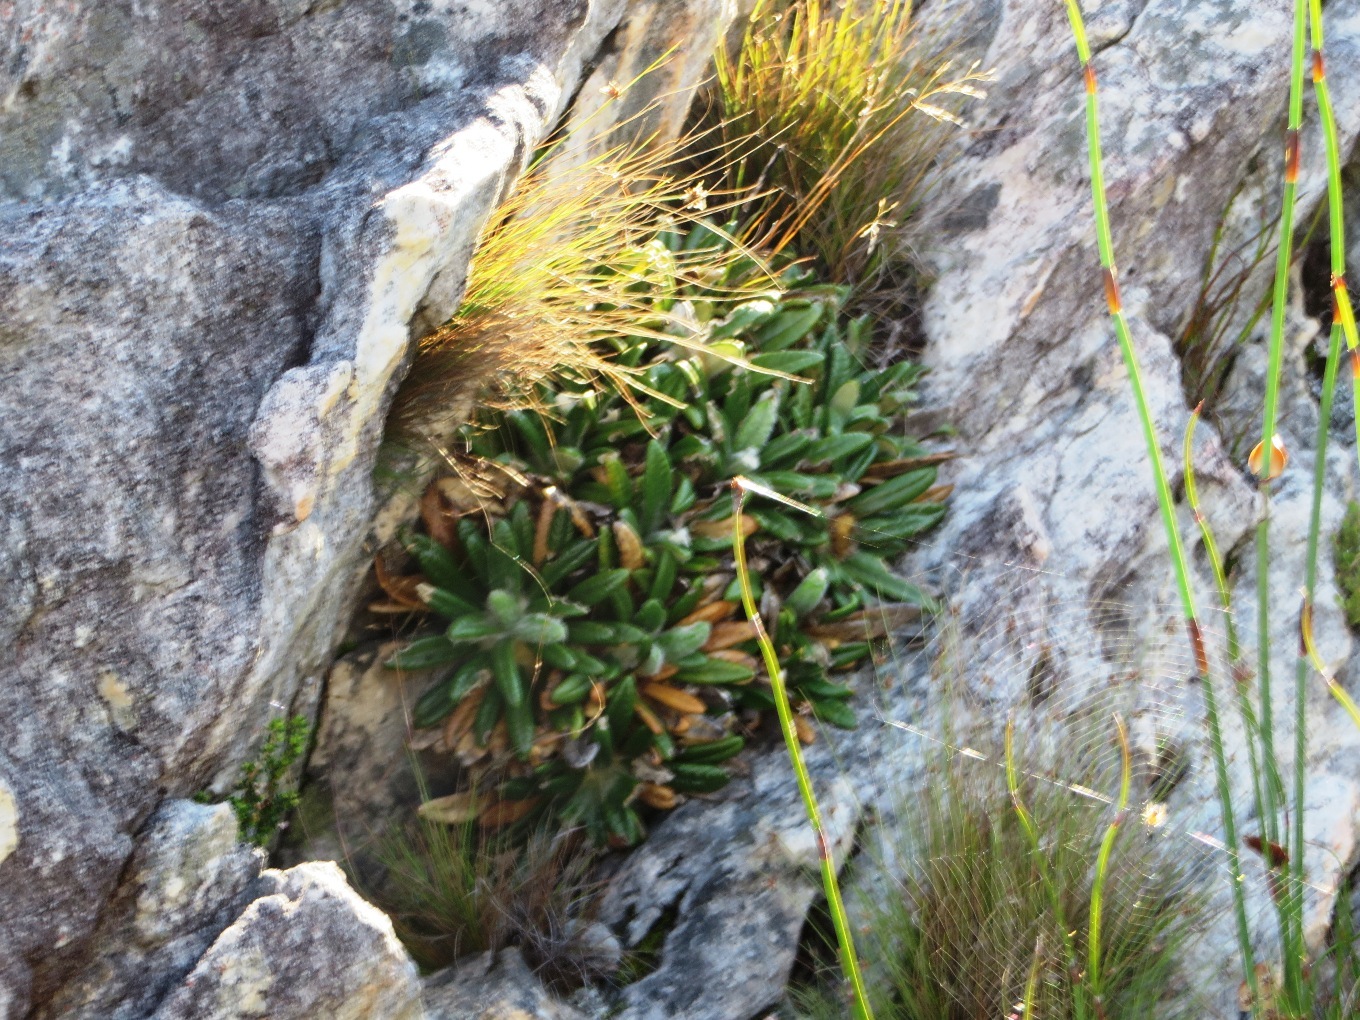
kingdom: Plantae
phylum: Tracheophyta
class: Magnoliopsida
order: Asterales
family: Asteraceae
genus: Oldenburgia
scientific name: Oldenburgia paradoxa
